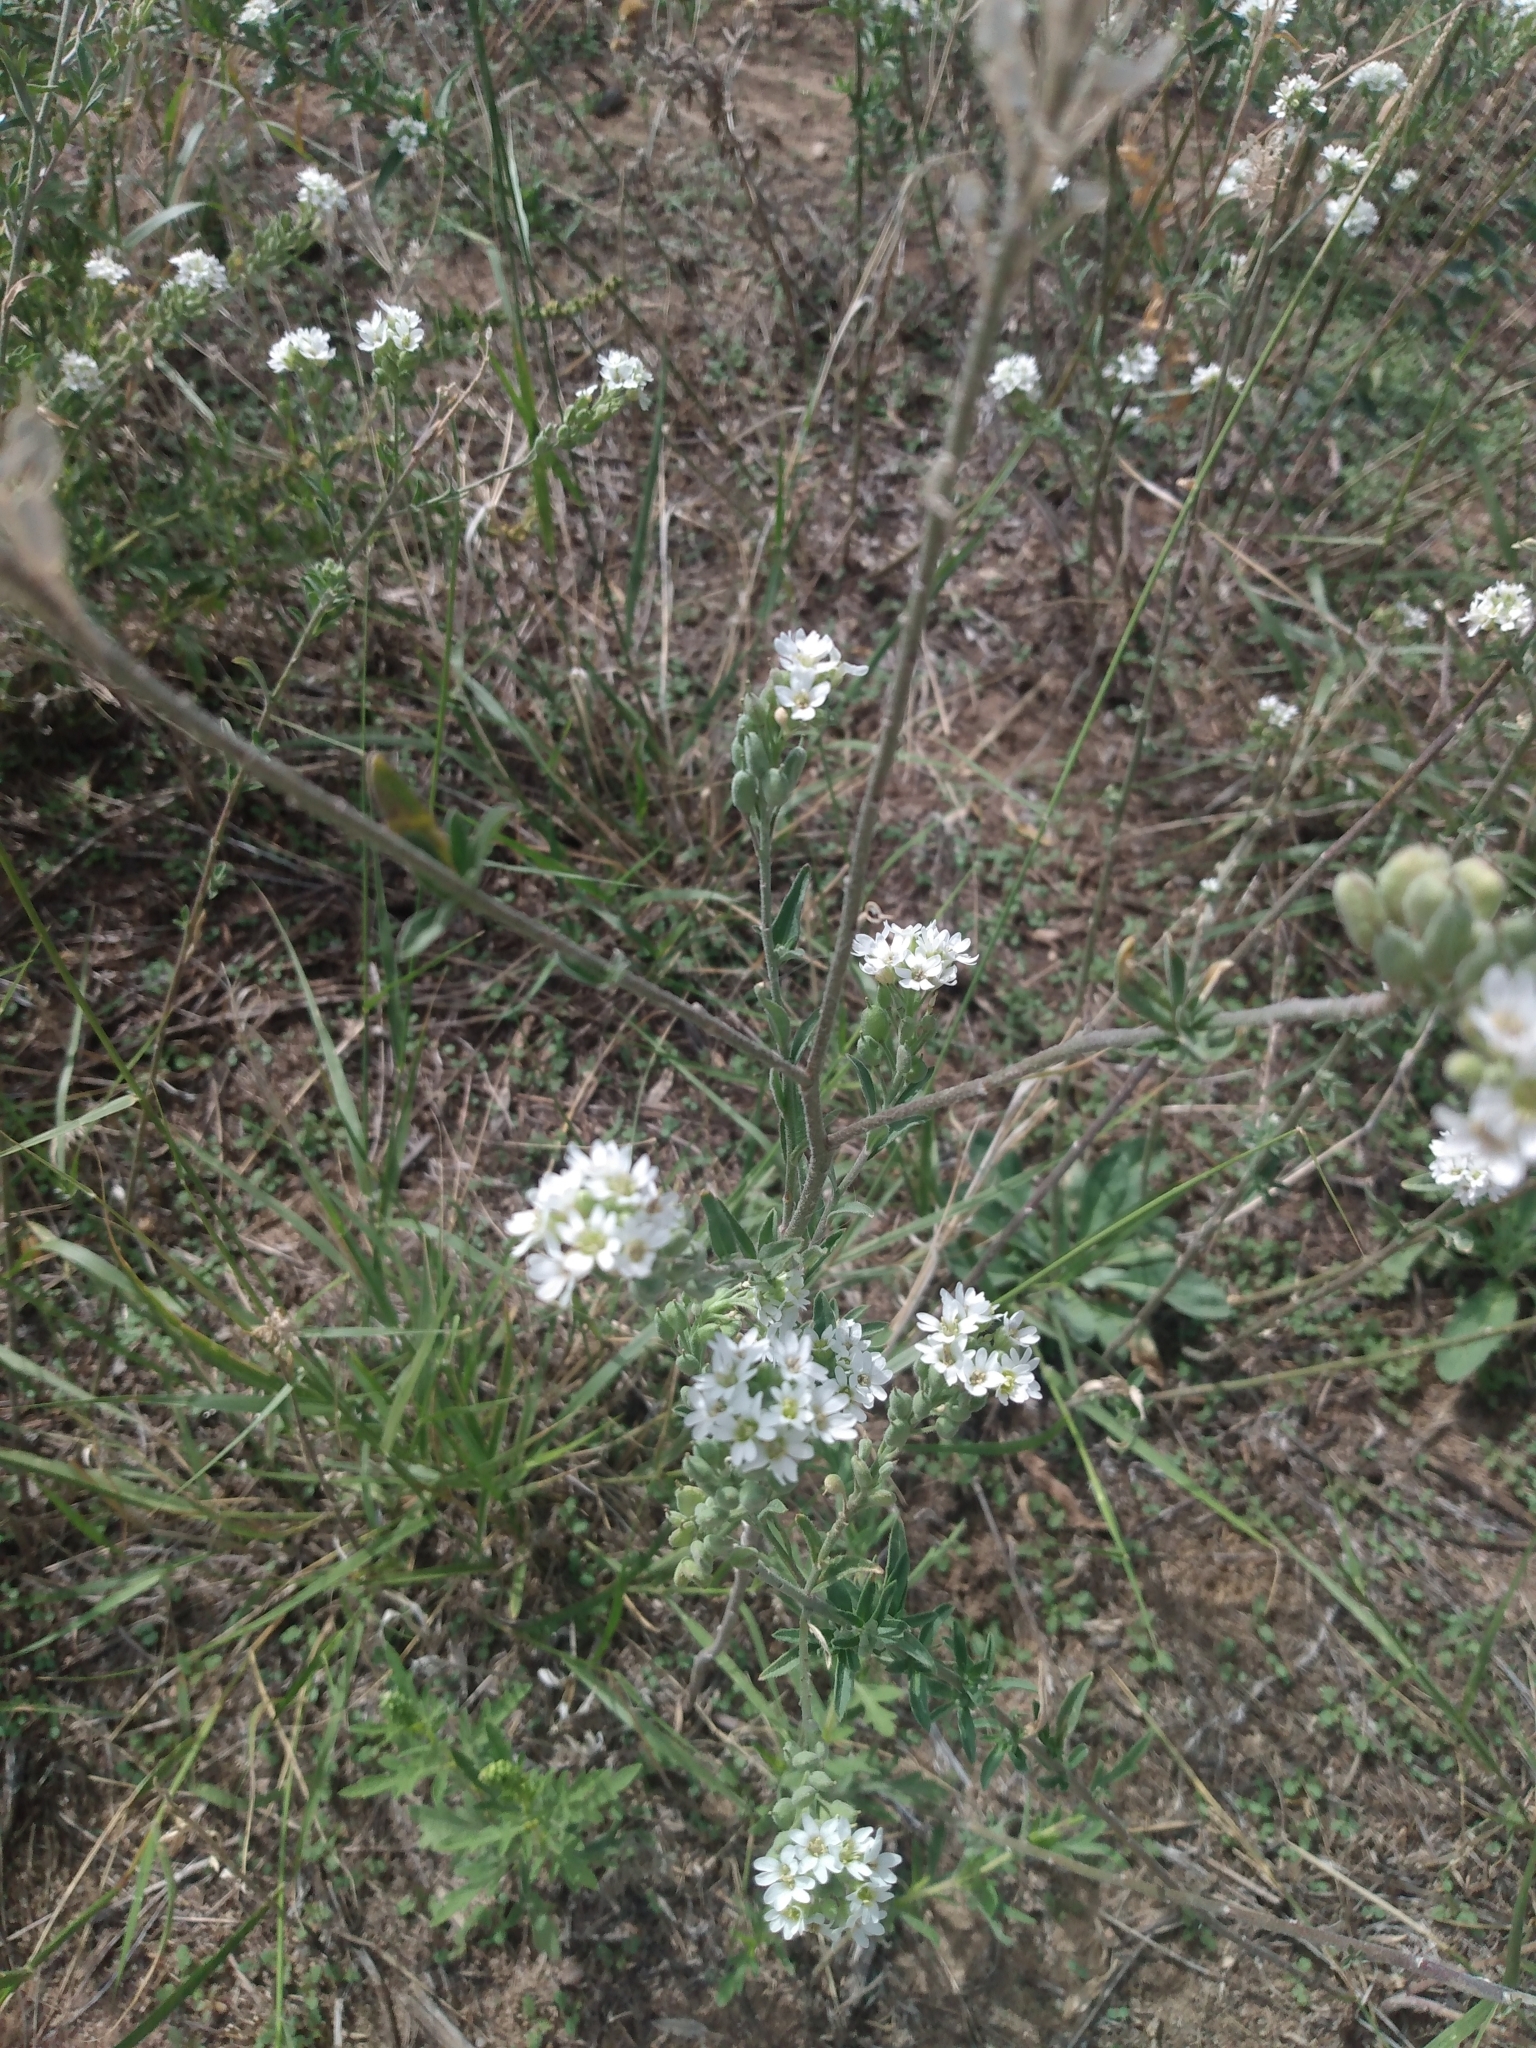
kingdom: Plantae
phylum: Tracheophyta
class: Magnoliopsida
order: Brassicales
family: Brassicaceae
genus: Berteroa
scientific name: Berteroa incana
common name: Hoary alison
